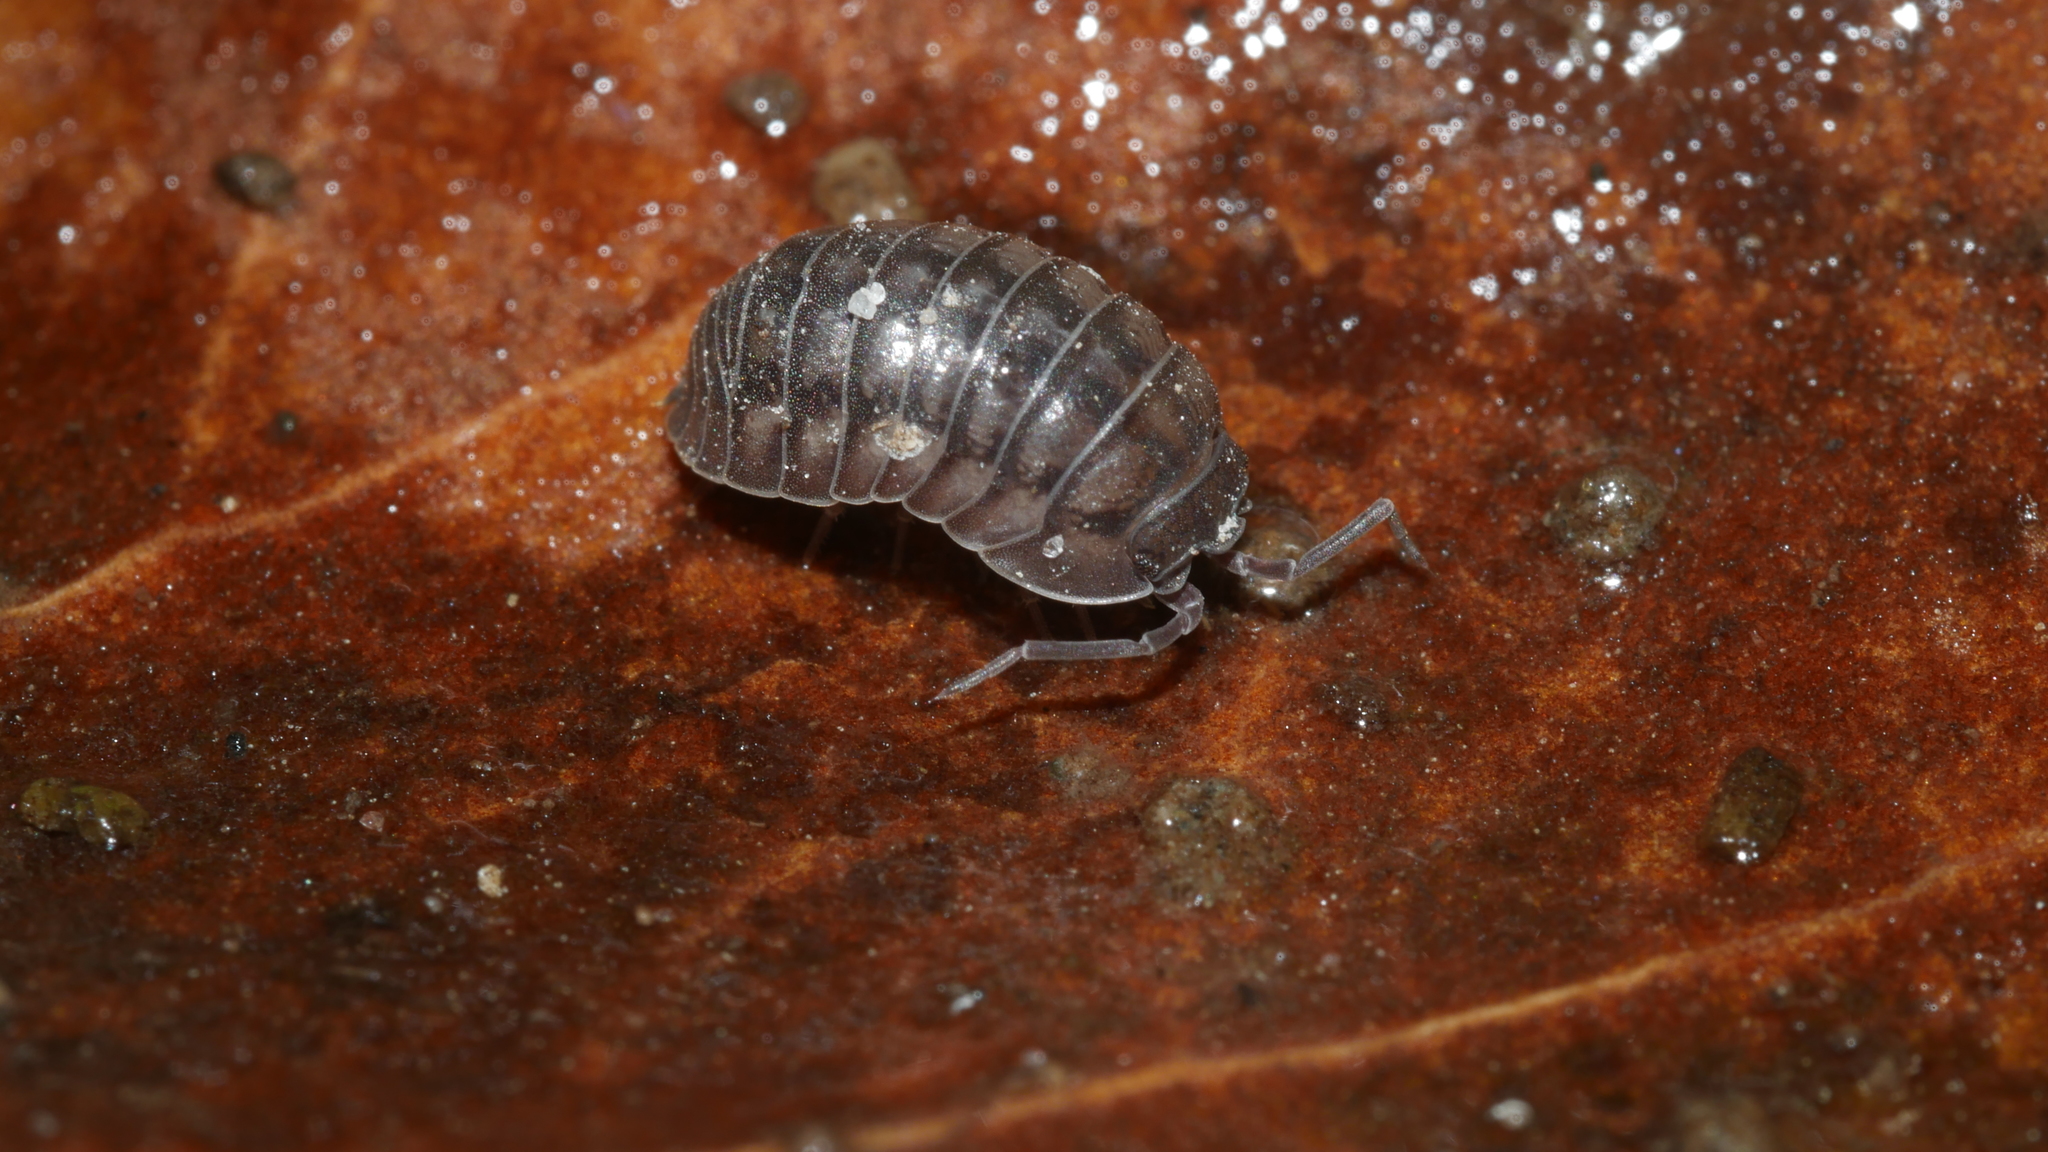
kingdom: Animalia
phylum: Arthropoda
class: Malacostraca
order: Isopoda
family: Armadillidiidae
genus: Armadillidium
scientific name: Armadillidium nasatum
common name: Isopod
